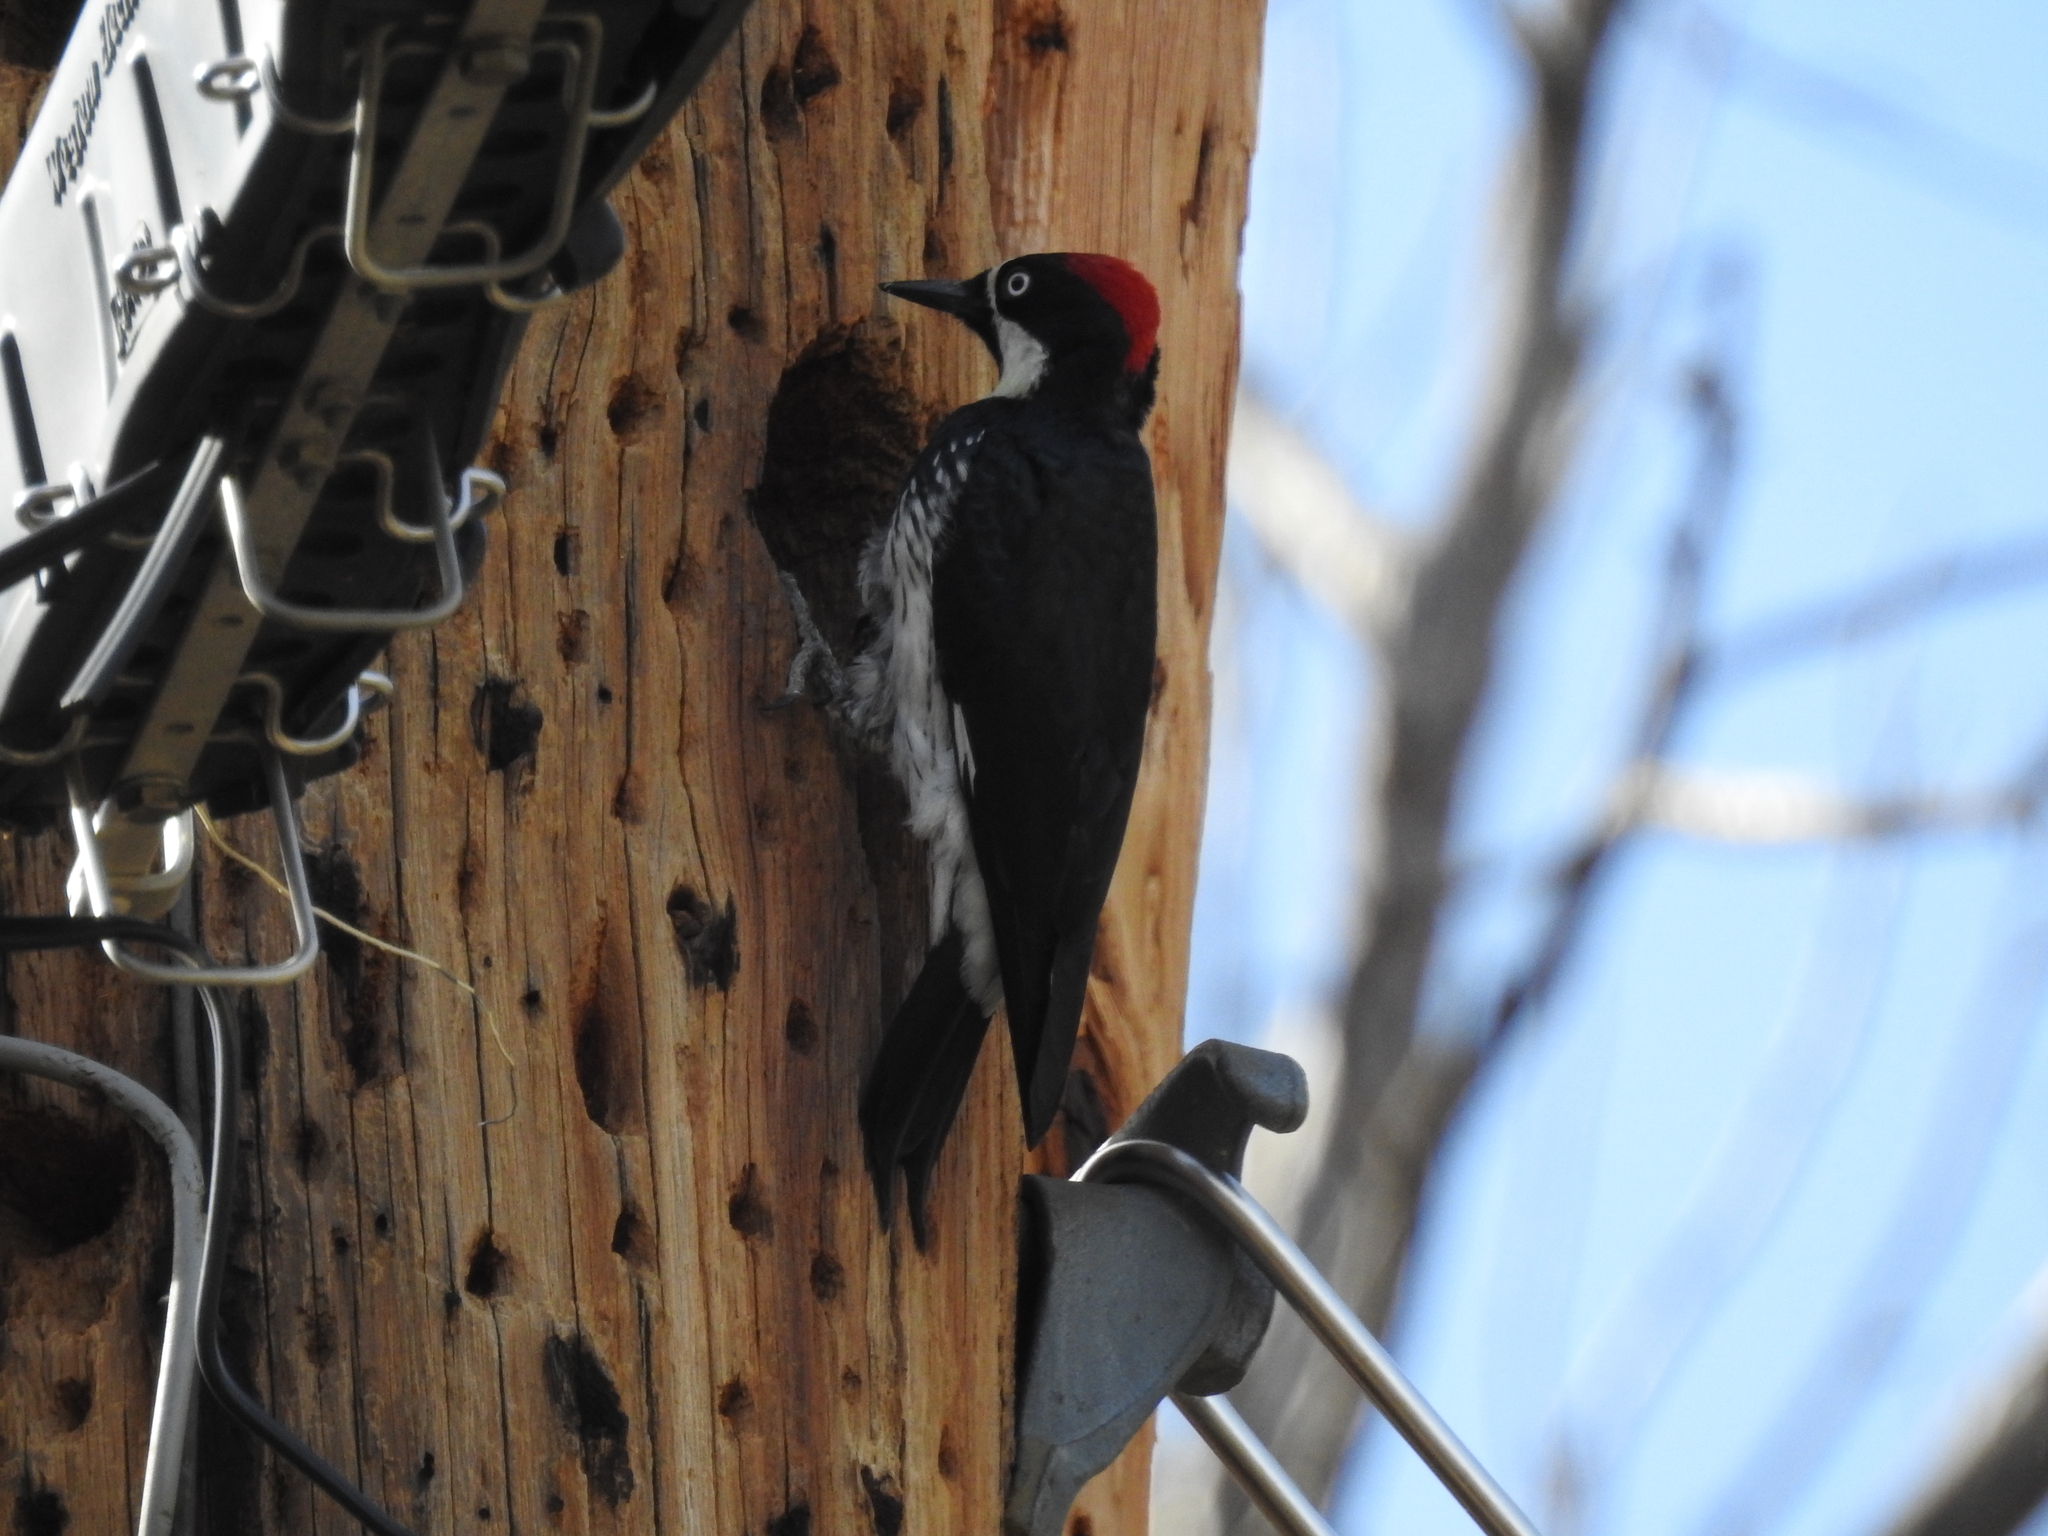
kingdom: Animalia
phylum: Chordata
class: Aves
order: Piciformes
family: Picidae
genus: Melanerpes
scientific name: Melanerpes formicivorus
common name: Acorn woodpecker
